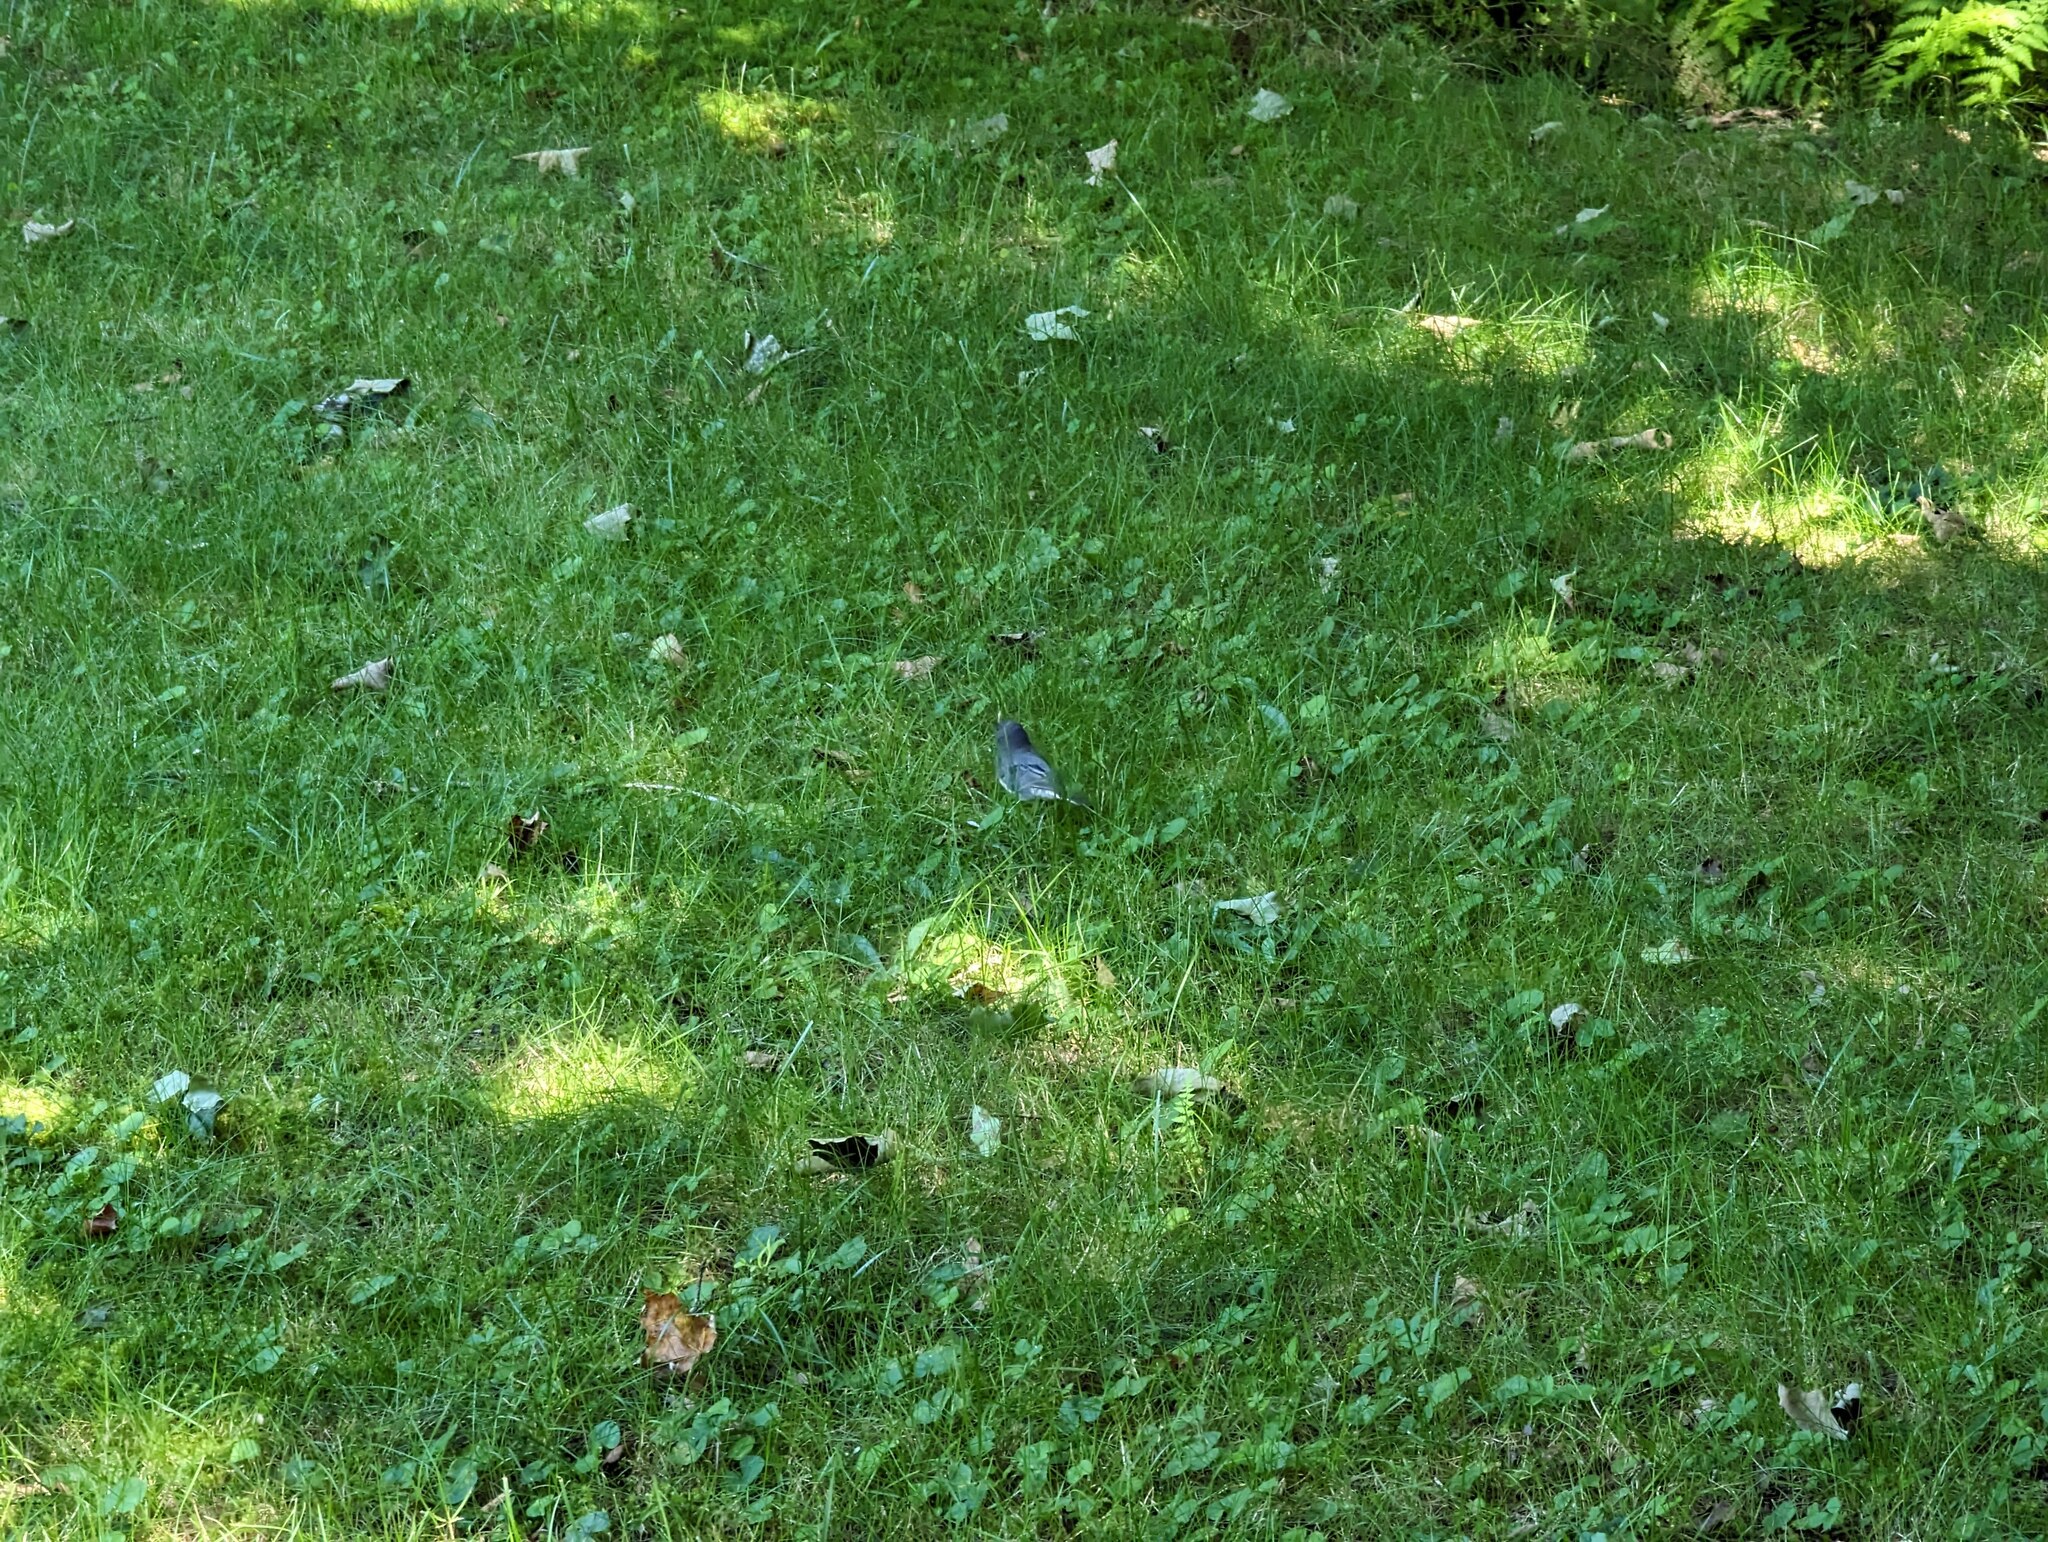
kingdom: Animalia
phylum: Chordata
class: Aves
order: Passeriformes
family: Passerellidae
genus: Junco
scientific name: Junco hyemalis
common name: Dark-eyed junco
